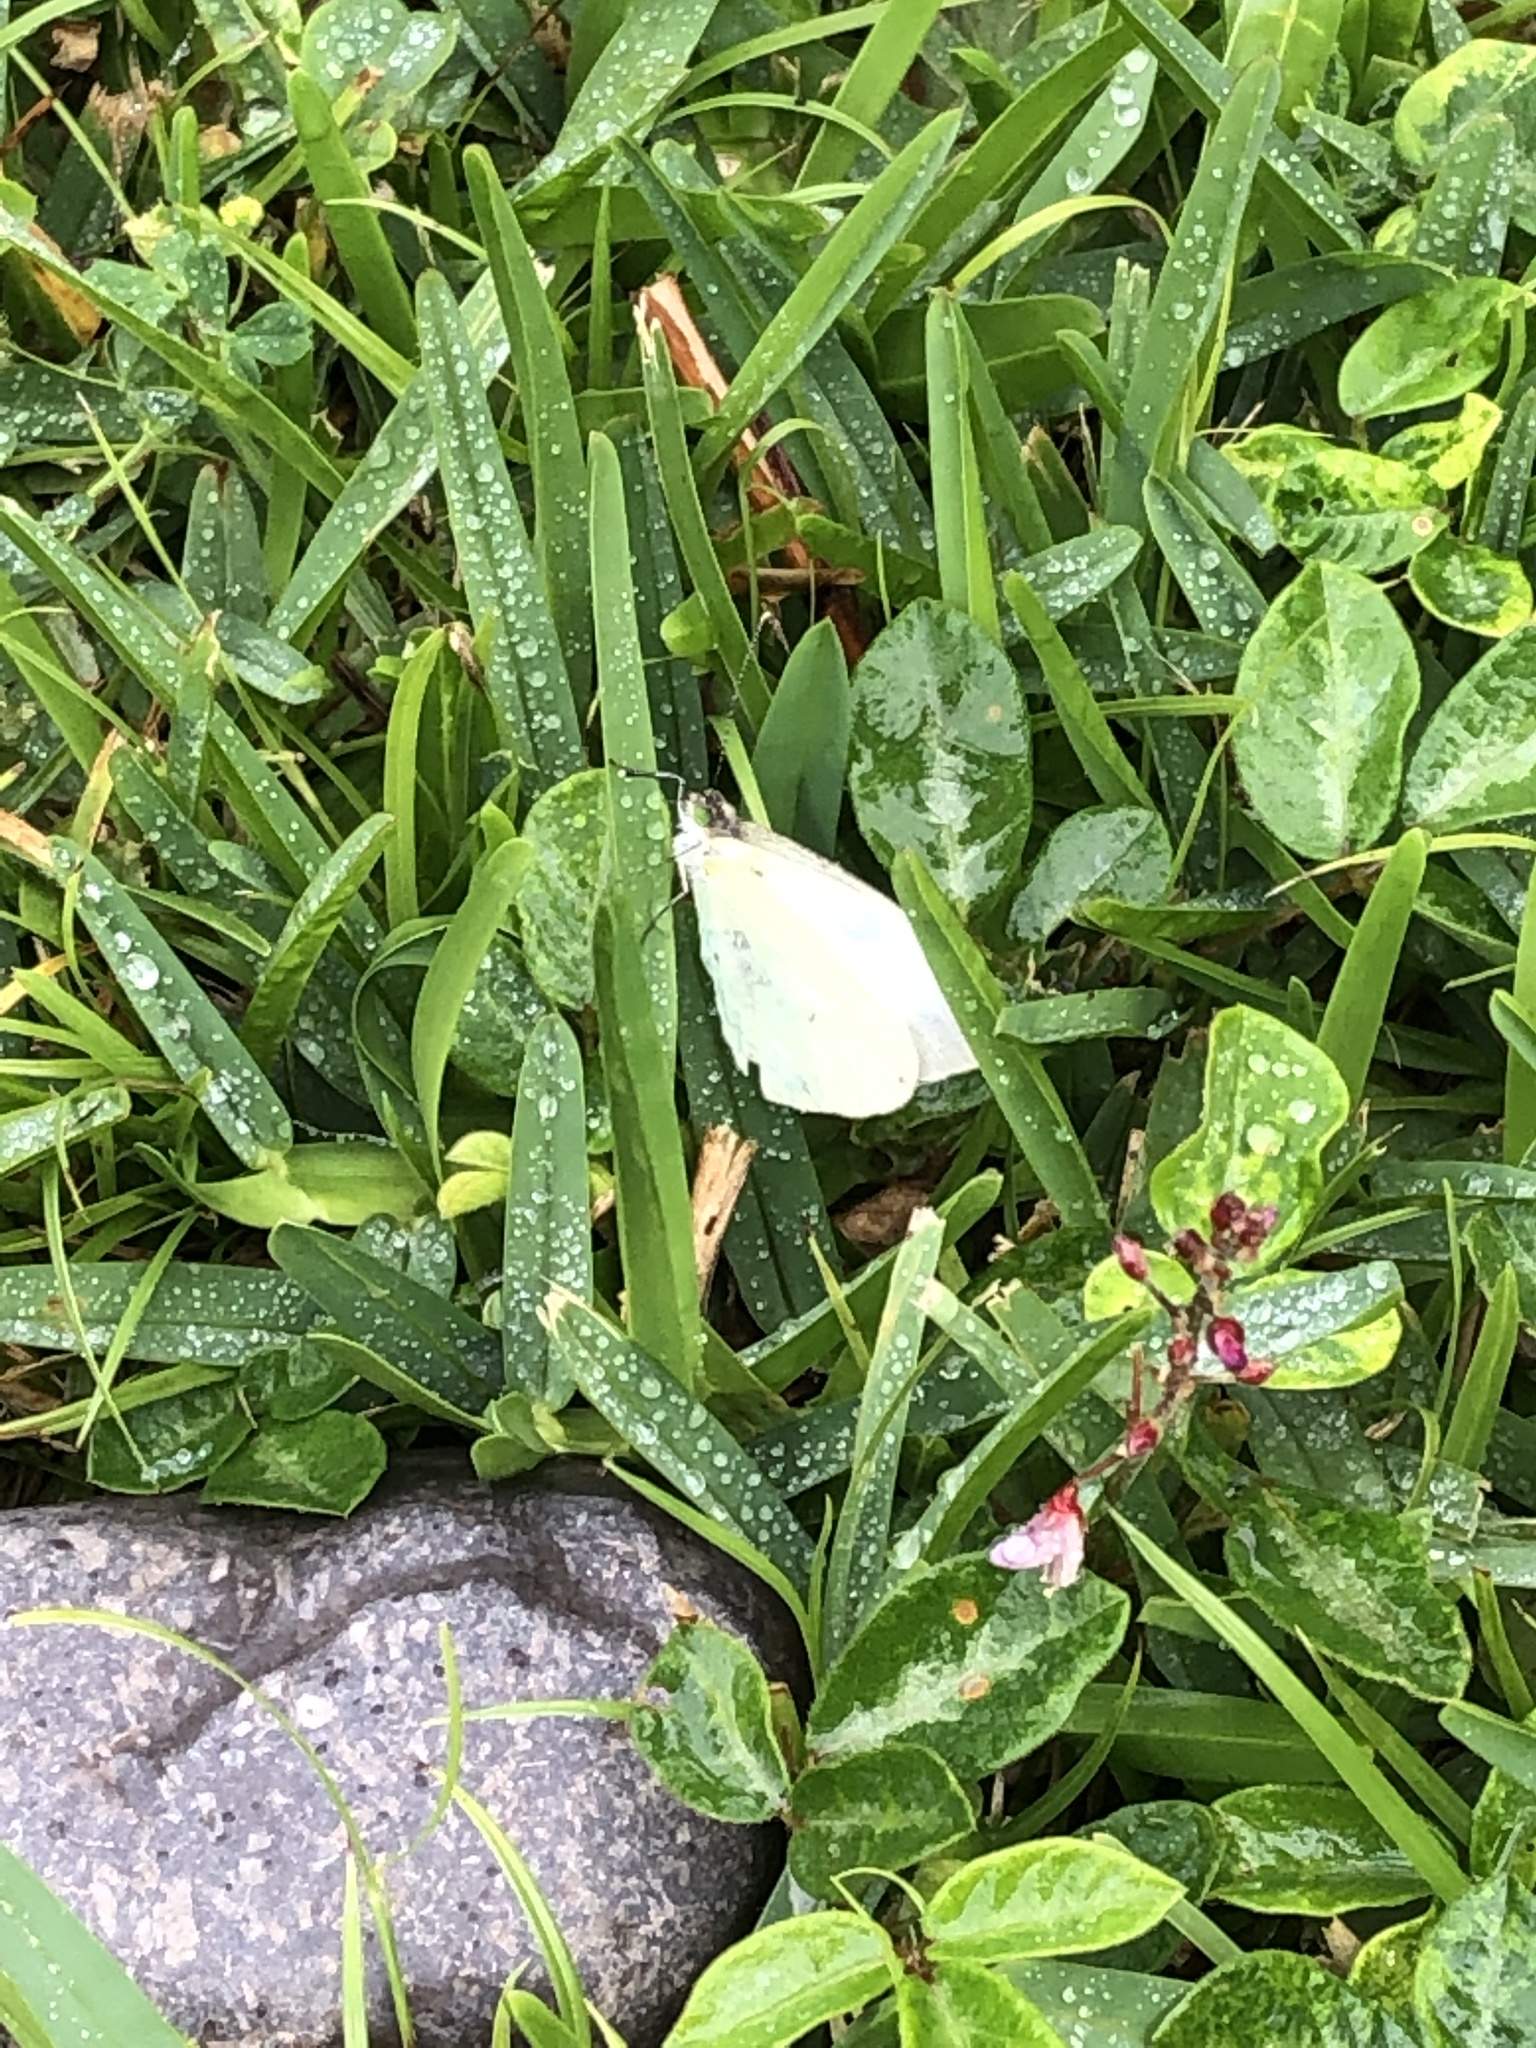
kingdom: Animalia
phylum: Arthropoda
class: Insecta
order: Lepidoptera
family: Pieridae
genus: Leptophobia
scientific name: Leptophobia aripa
